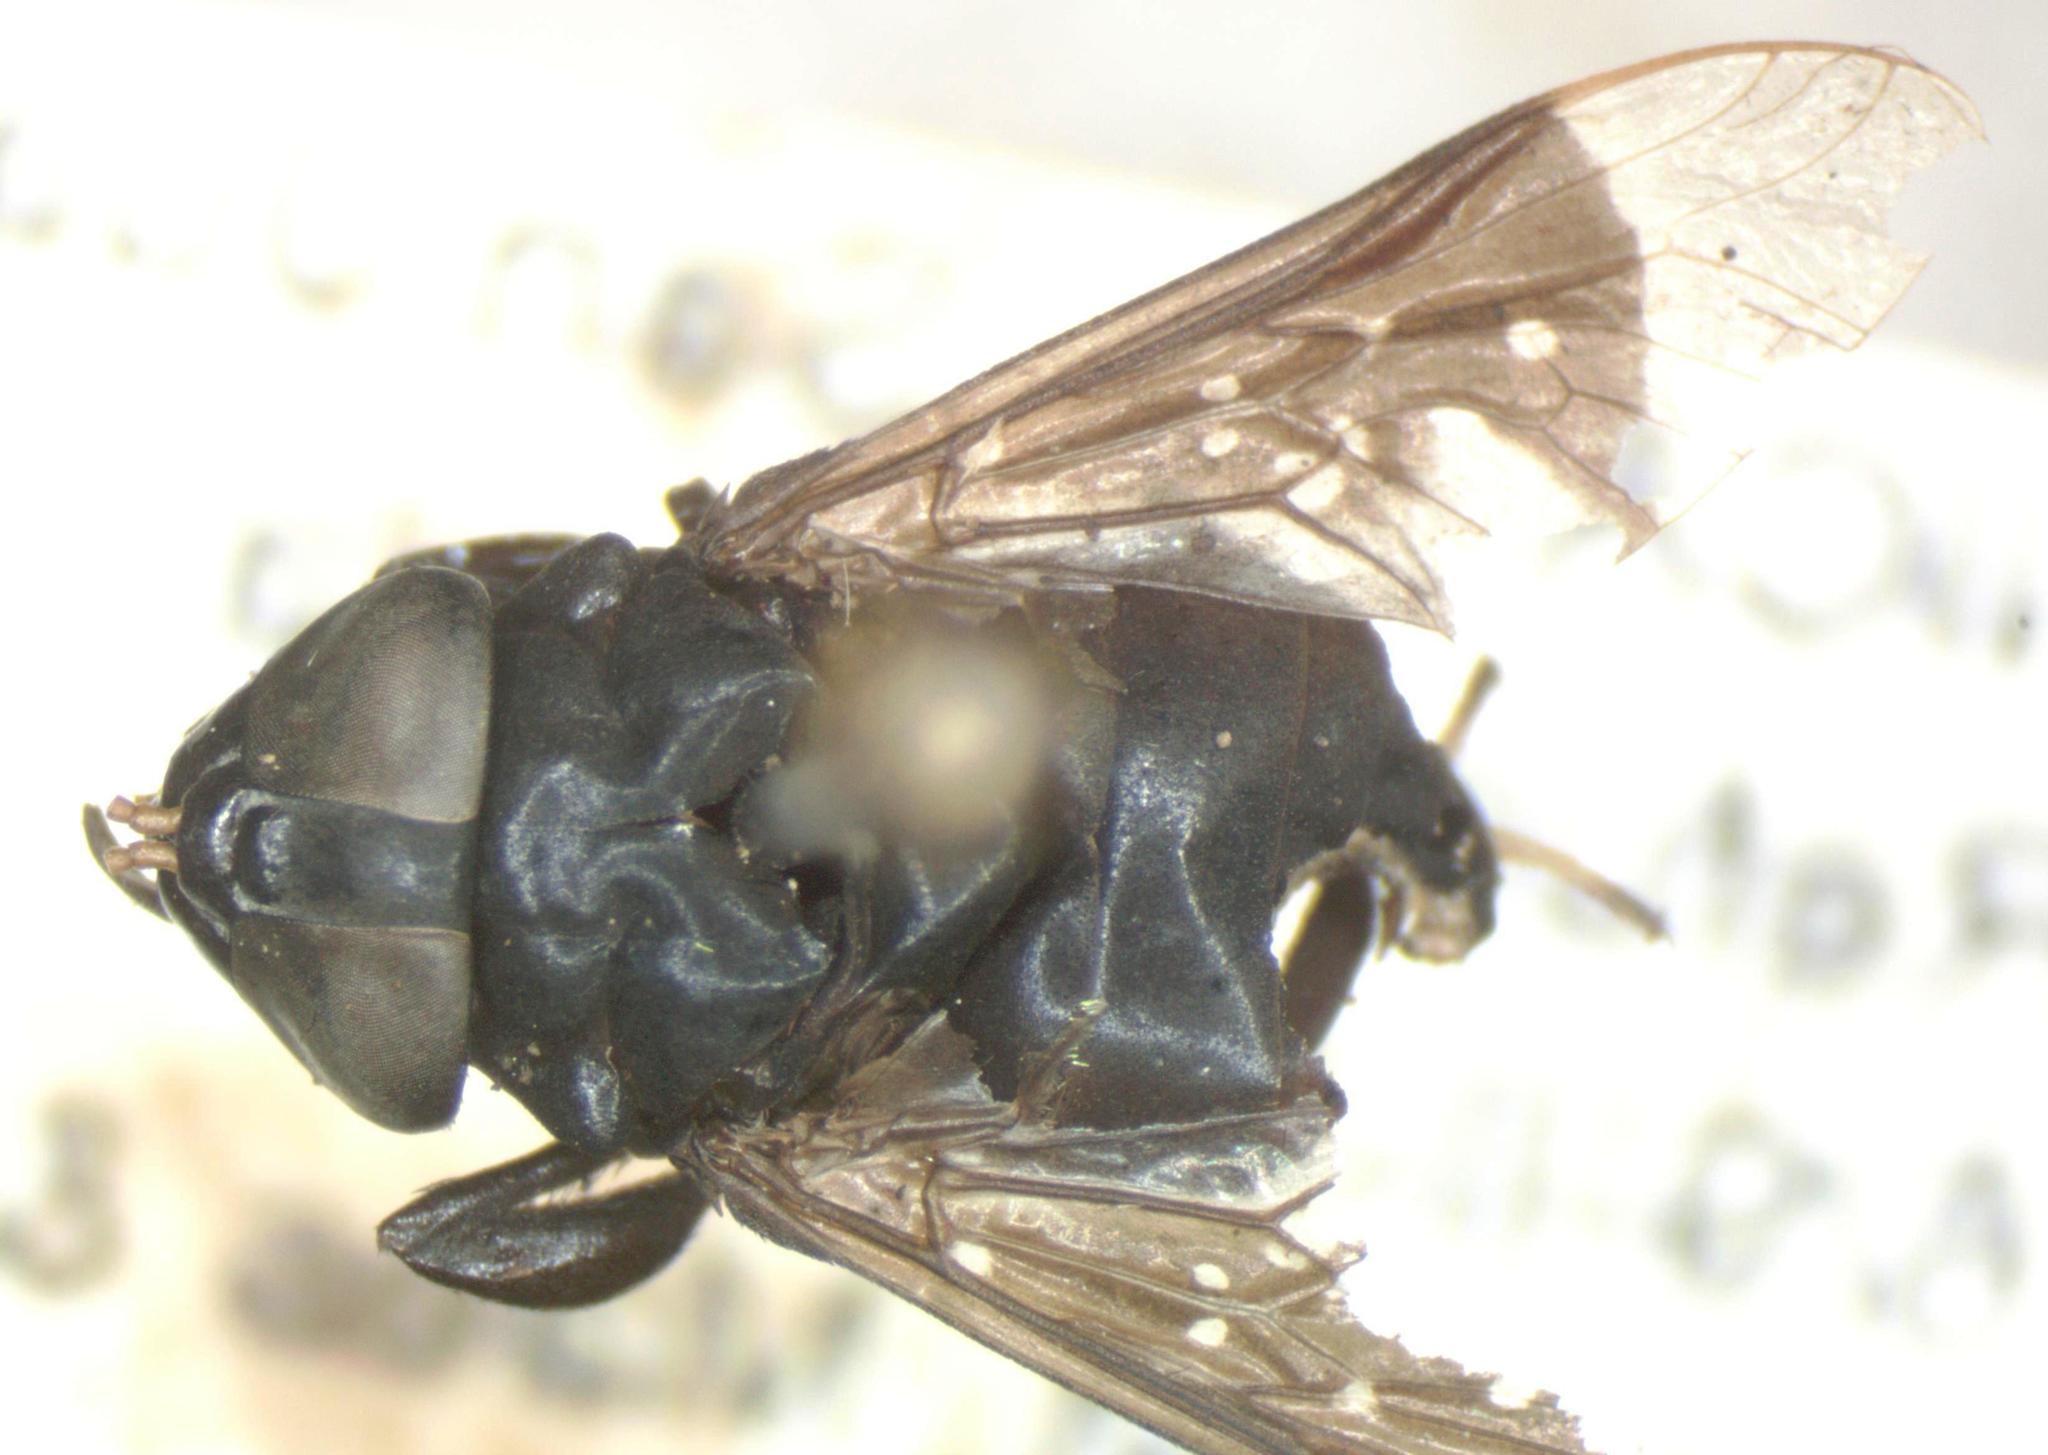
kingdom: Animalia
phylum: Arthropoda
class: Insecta
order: Diptera
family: Tabanidae
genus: Lepiselaga
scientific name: Lepiselaga crassipes
